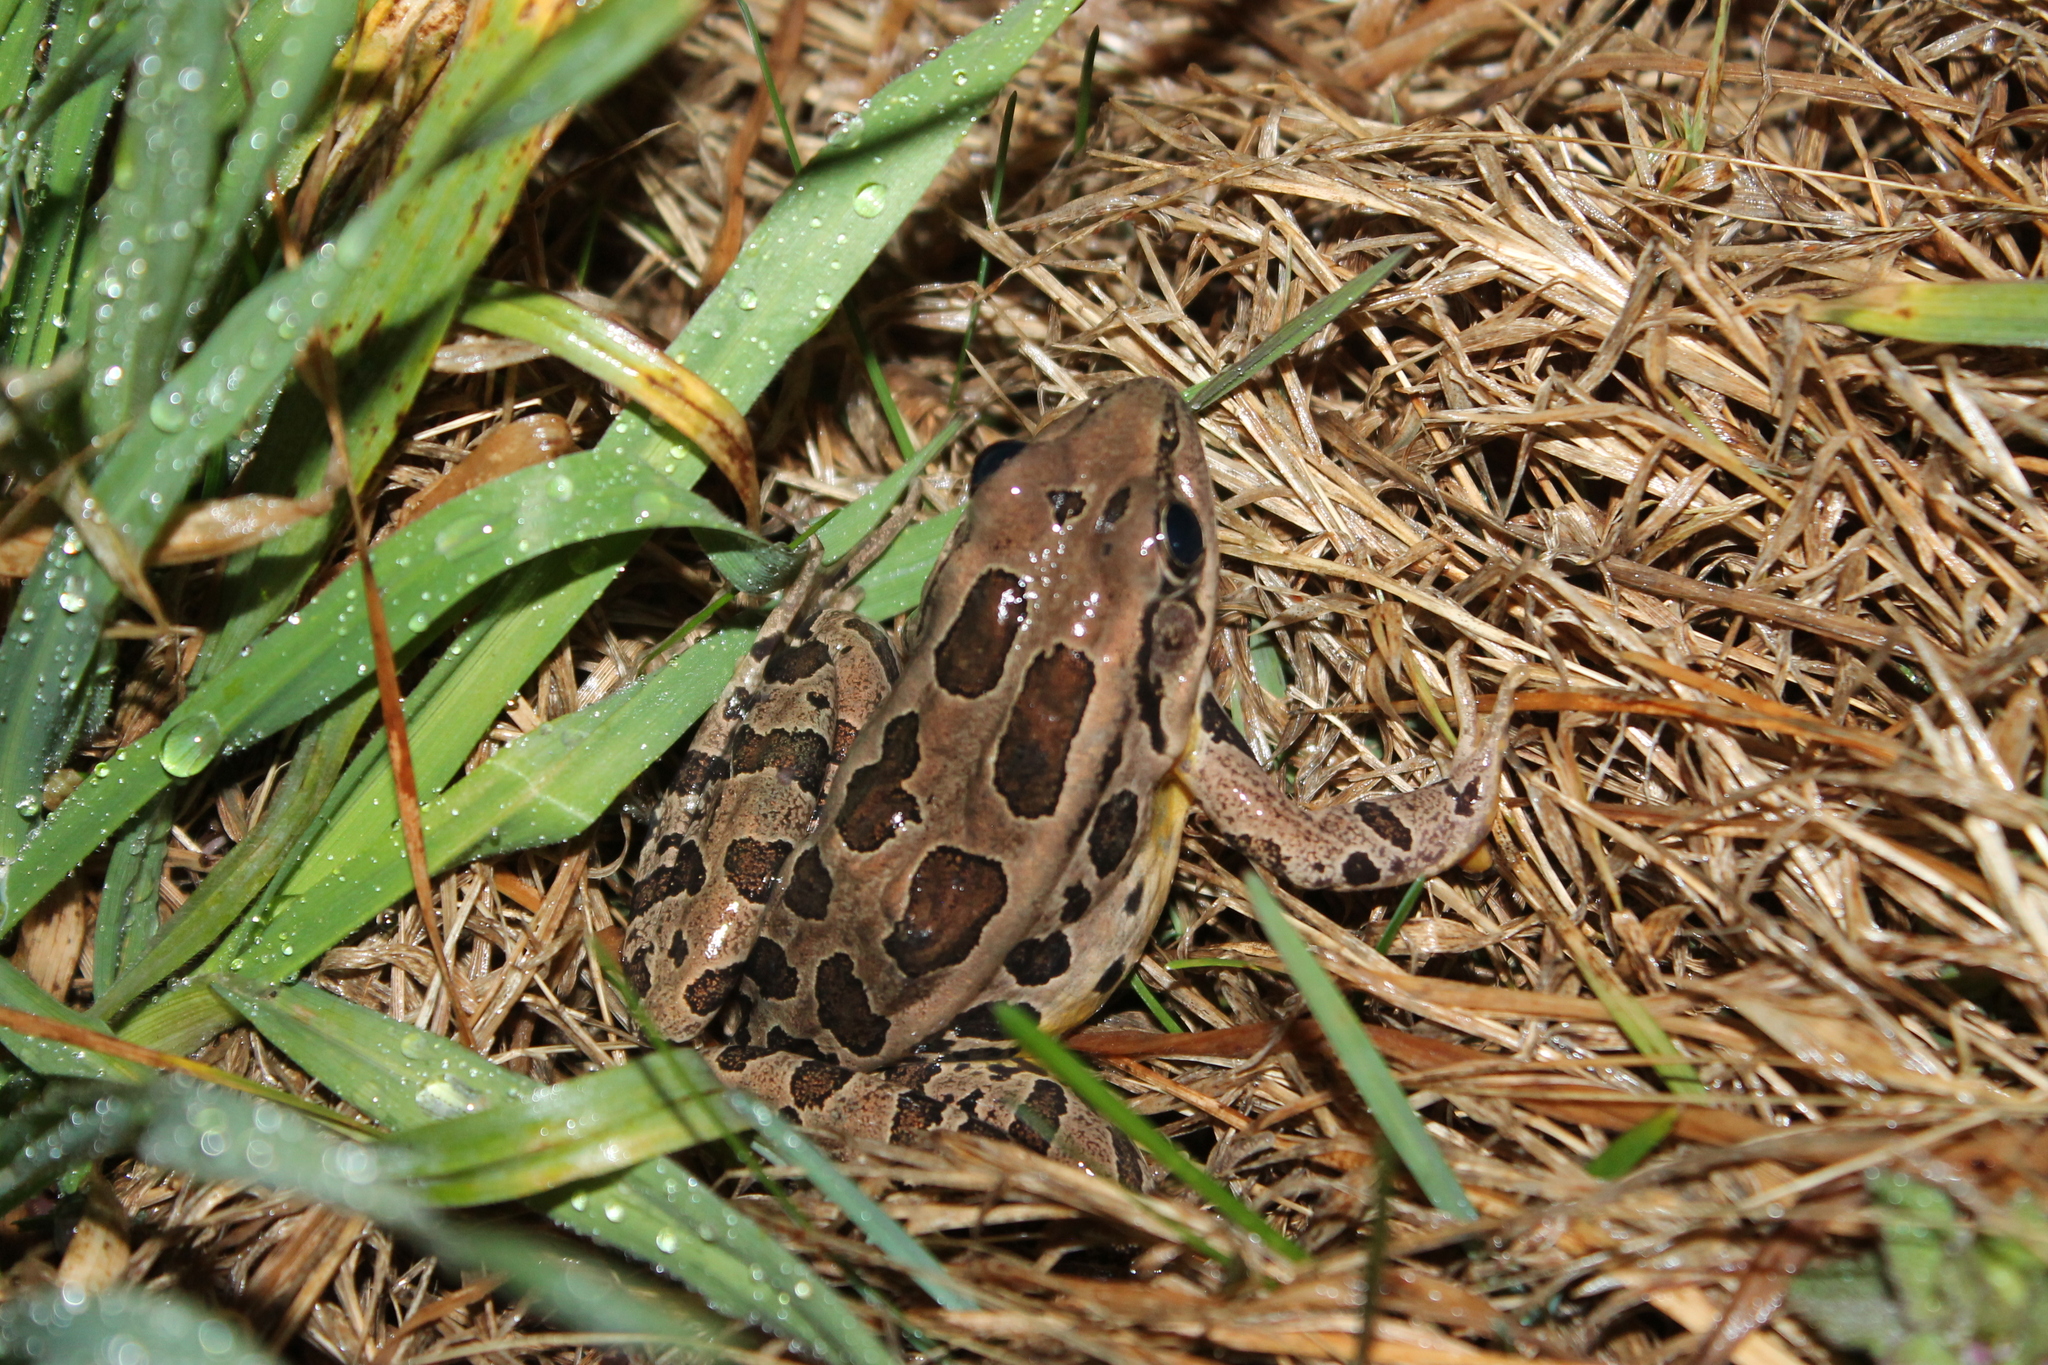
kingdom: Animalia
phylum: Chordata
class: Amphibia
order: Anura
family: Ranidae
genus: Lithobates
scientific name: Lithobates palustris
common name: Pickerel frog
